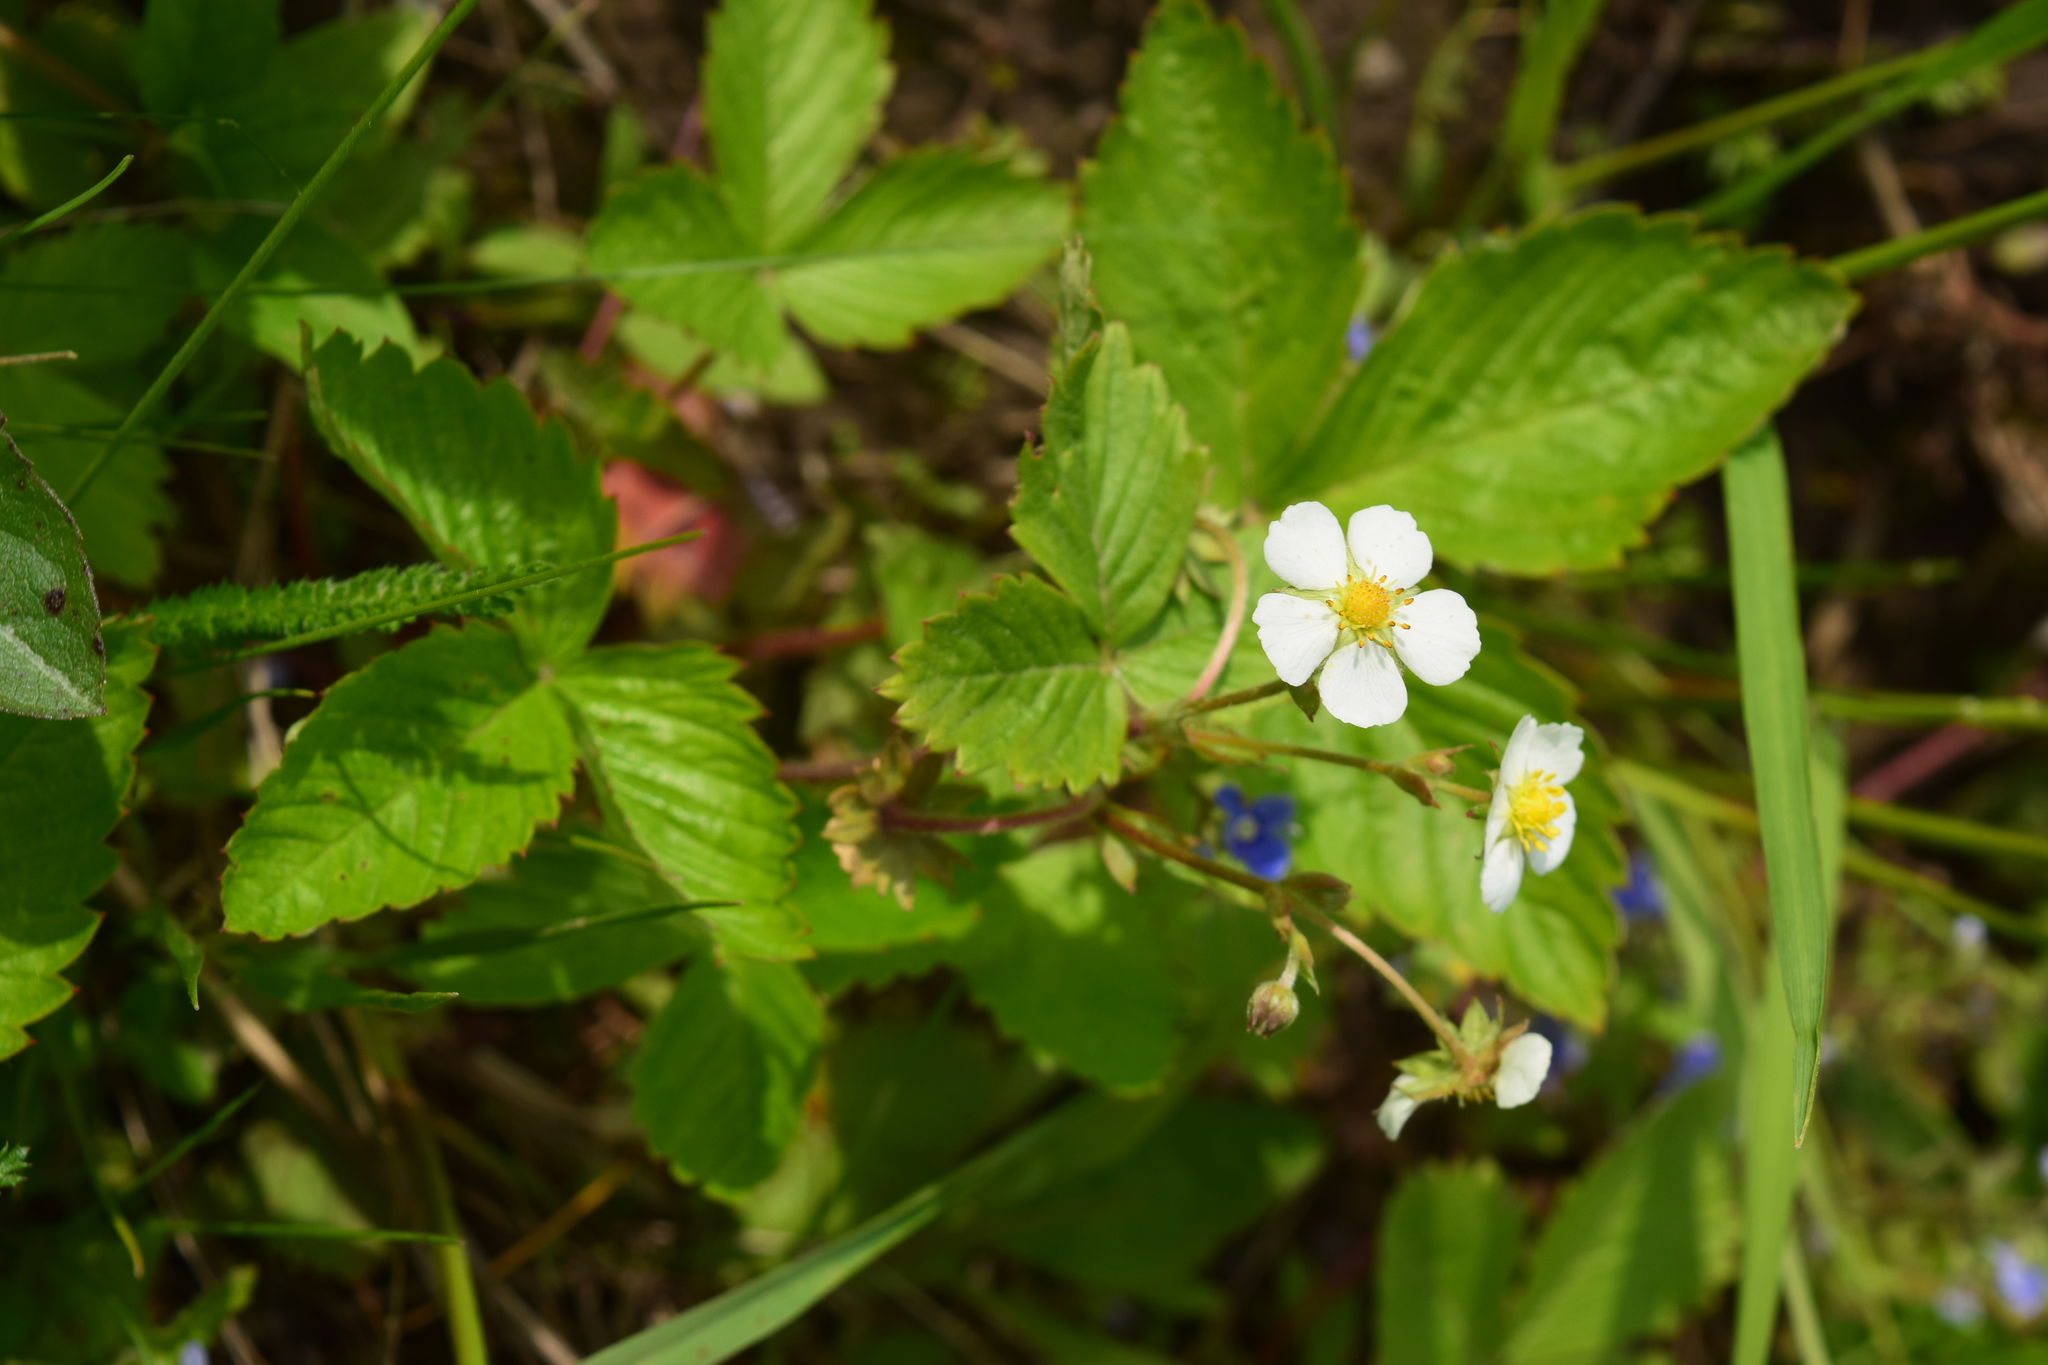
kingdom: Plantae
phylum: Tracheophyta
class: Magnoliopsida
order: Rosales
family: Rosaceae
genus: Fragaria
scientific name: Fragaria vesca
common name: Wild strawberry
